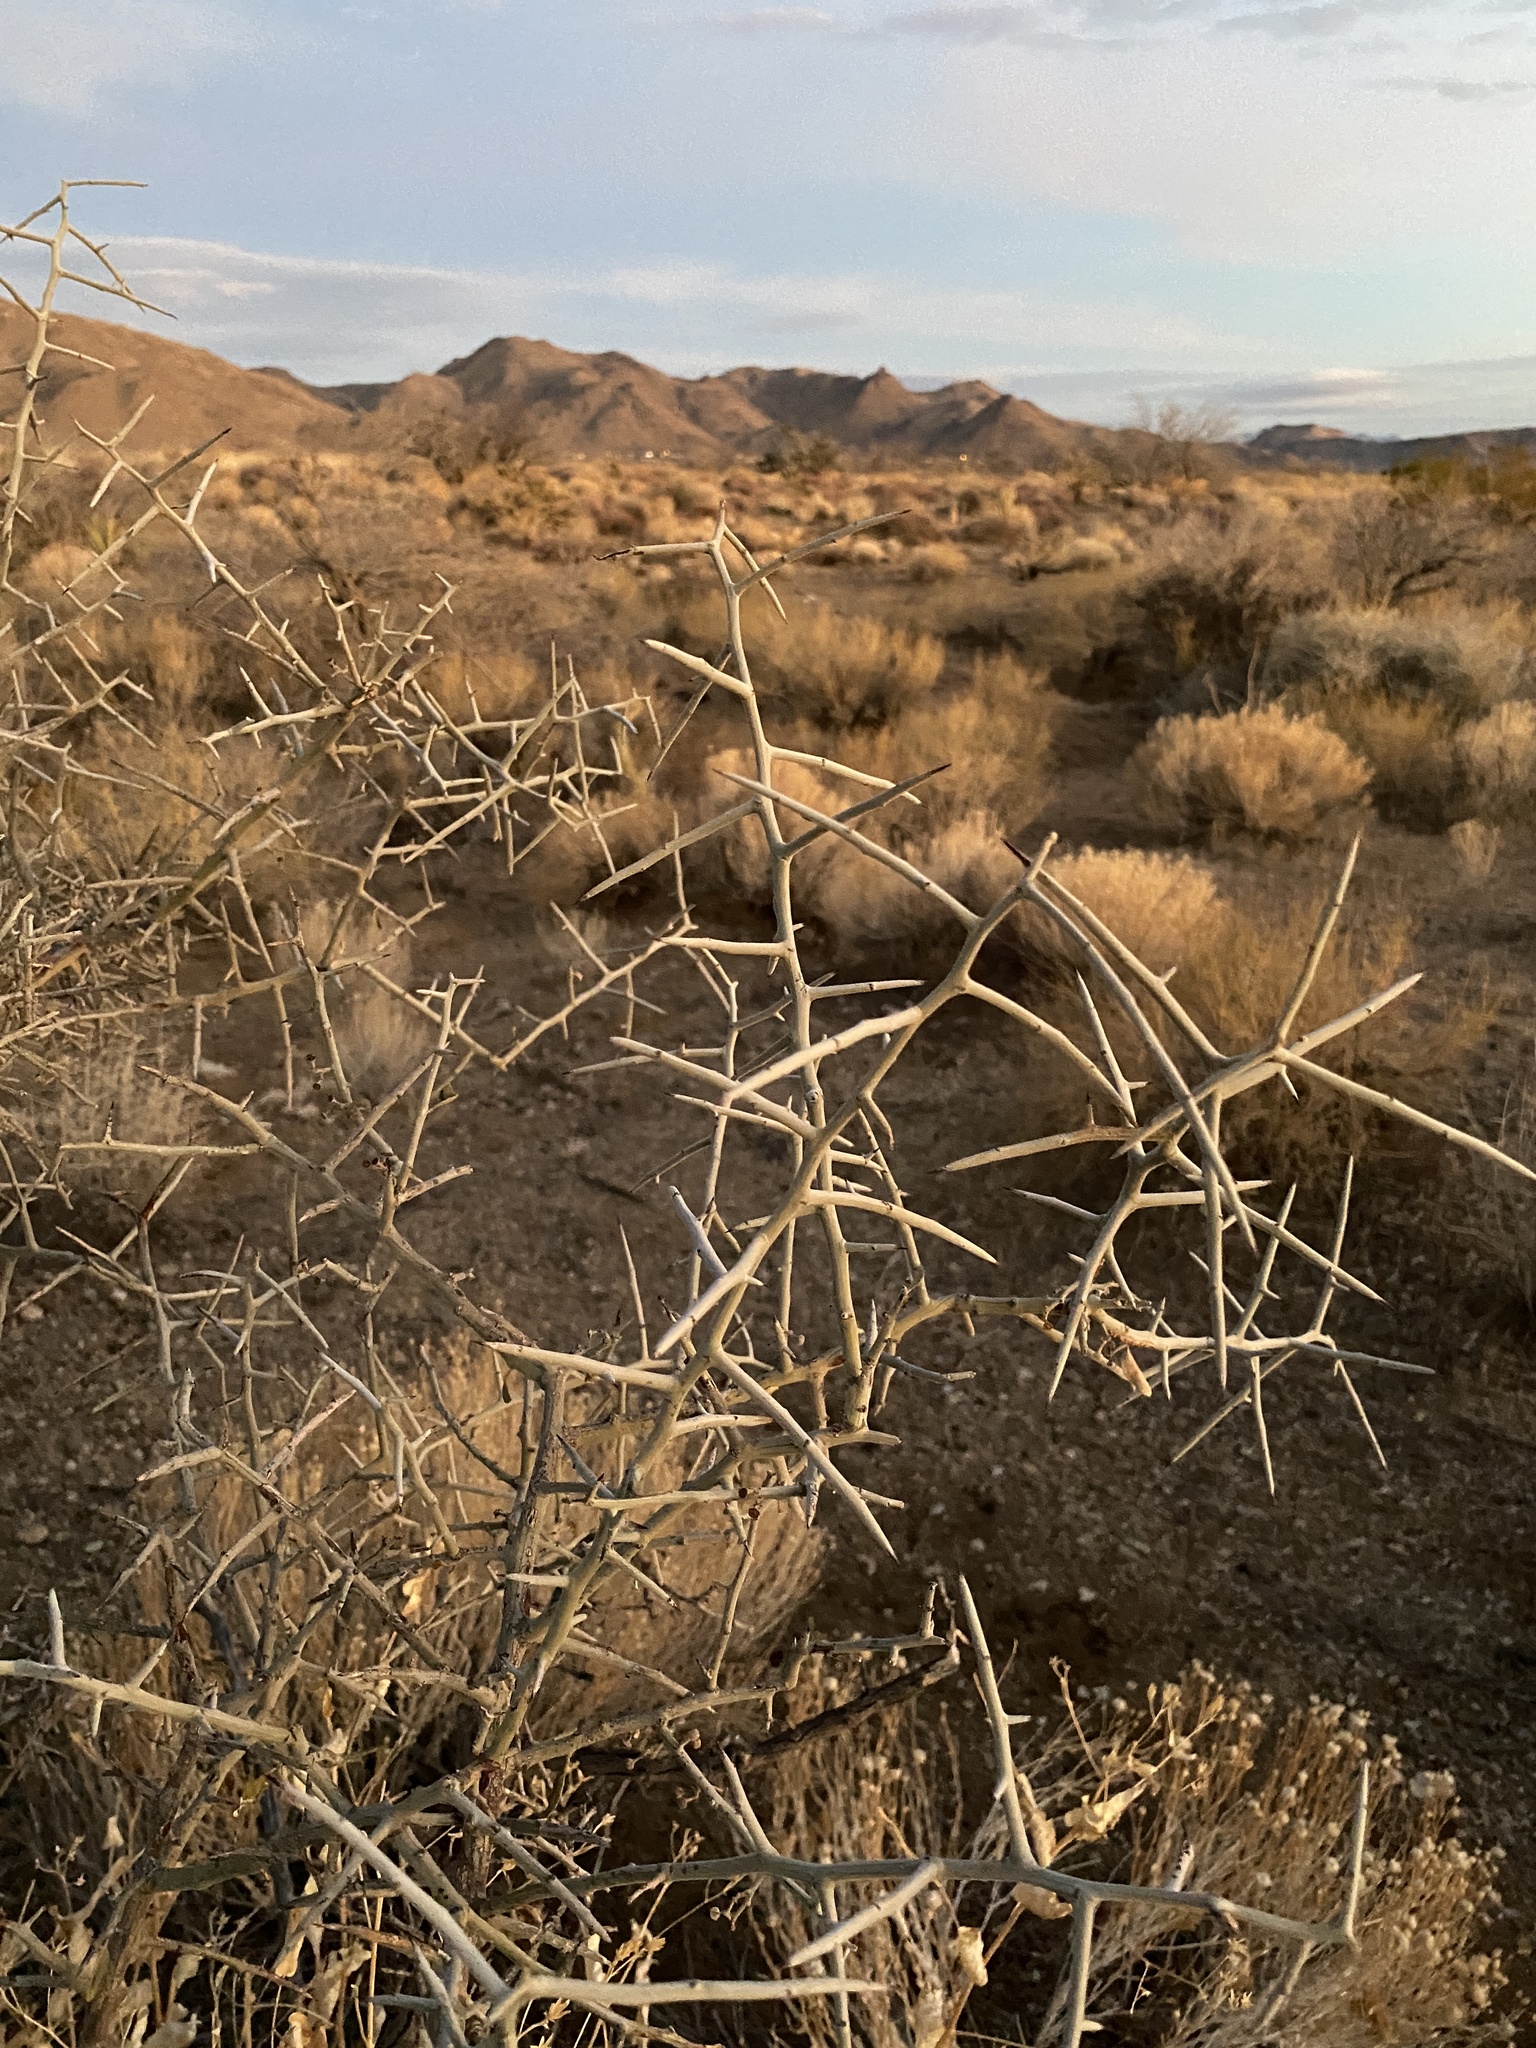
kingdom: Plantae
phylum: Tracheophyta
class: Magnoliopsida
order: Rosales
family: Rhamnaceae
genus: Sarcomphalus
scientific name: Sarcomphalus obtusifolius
